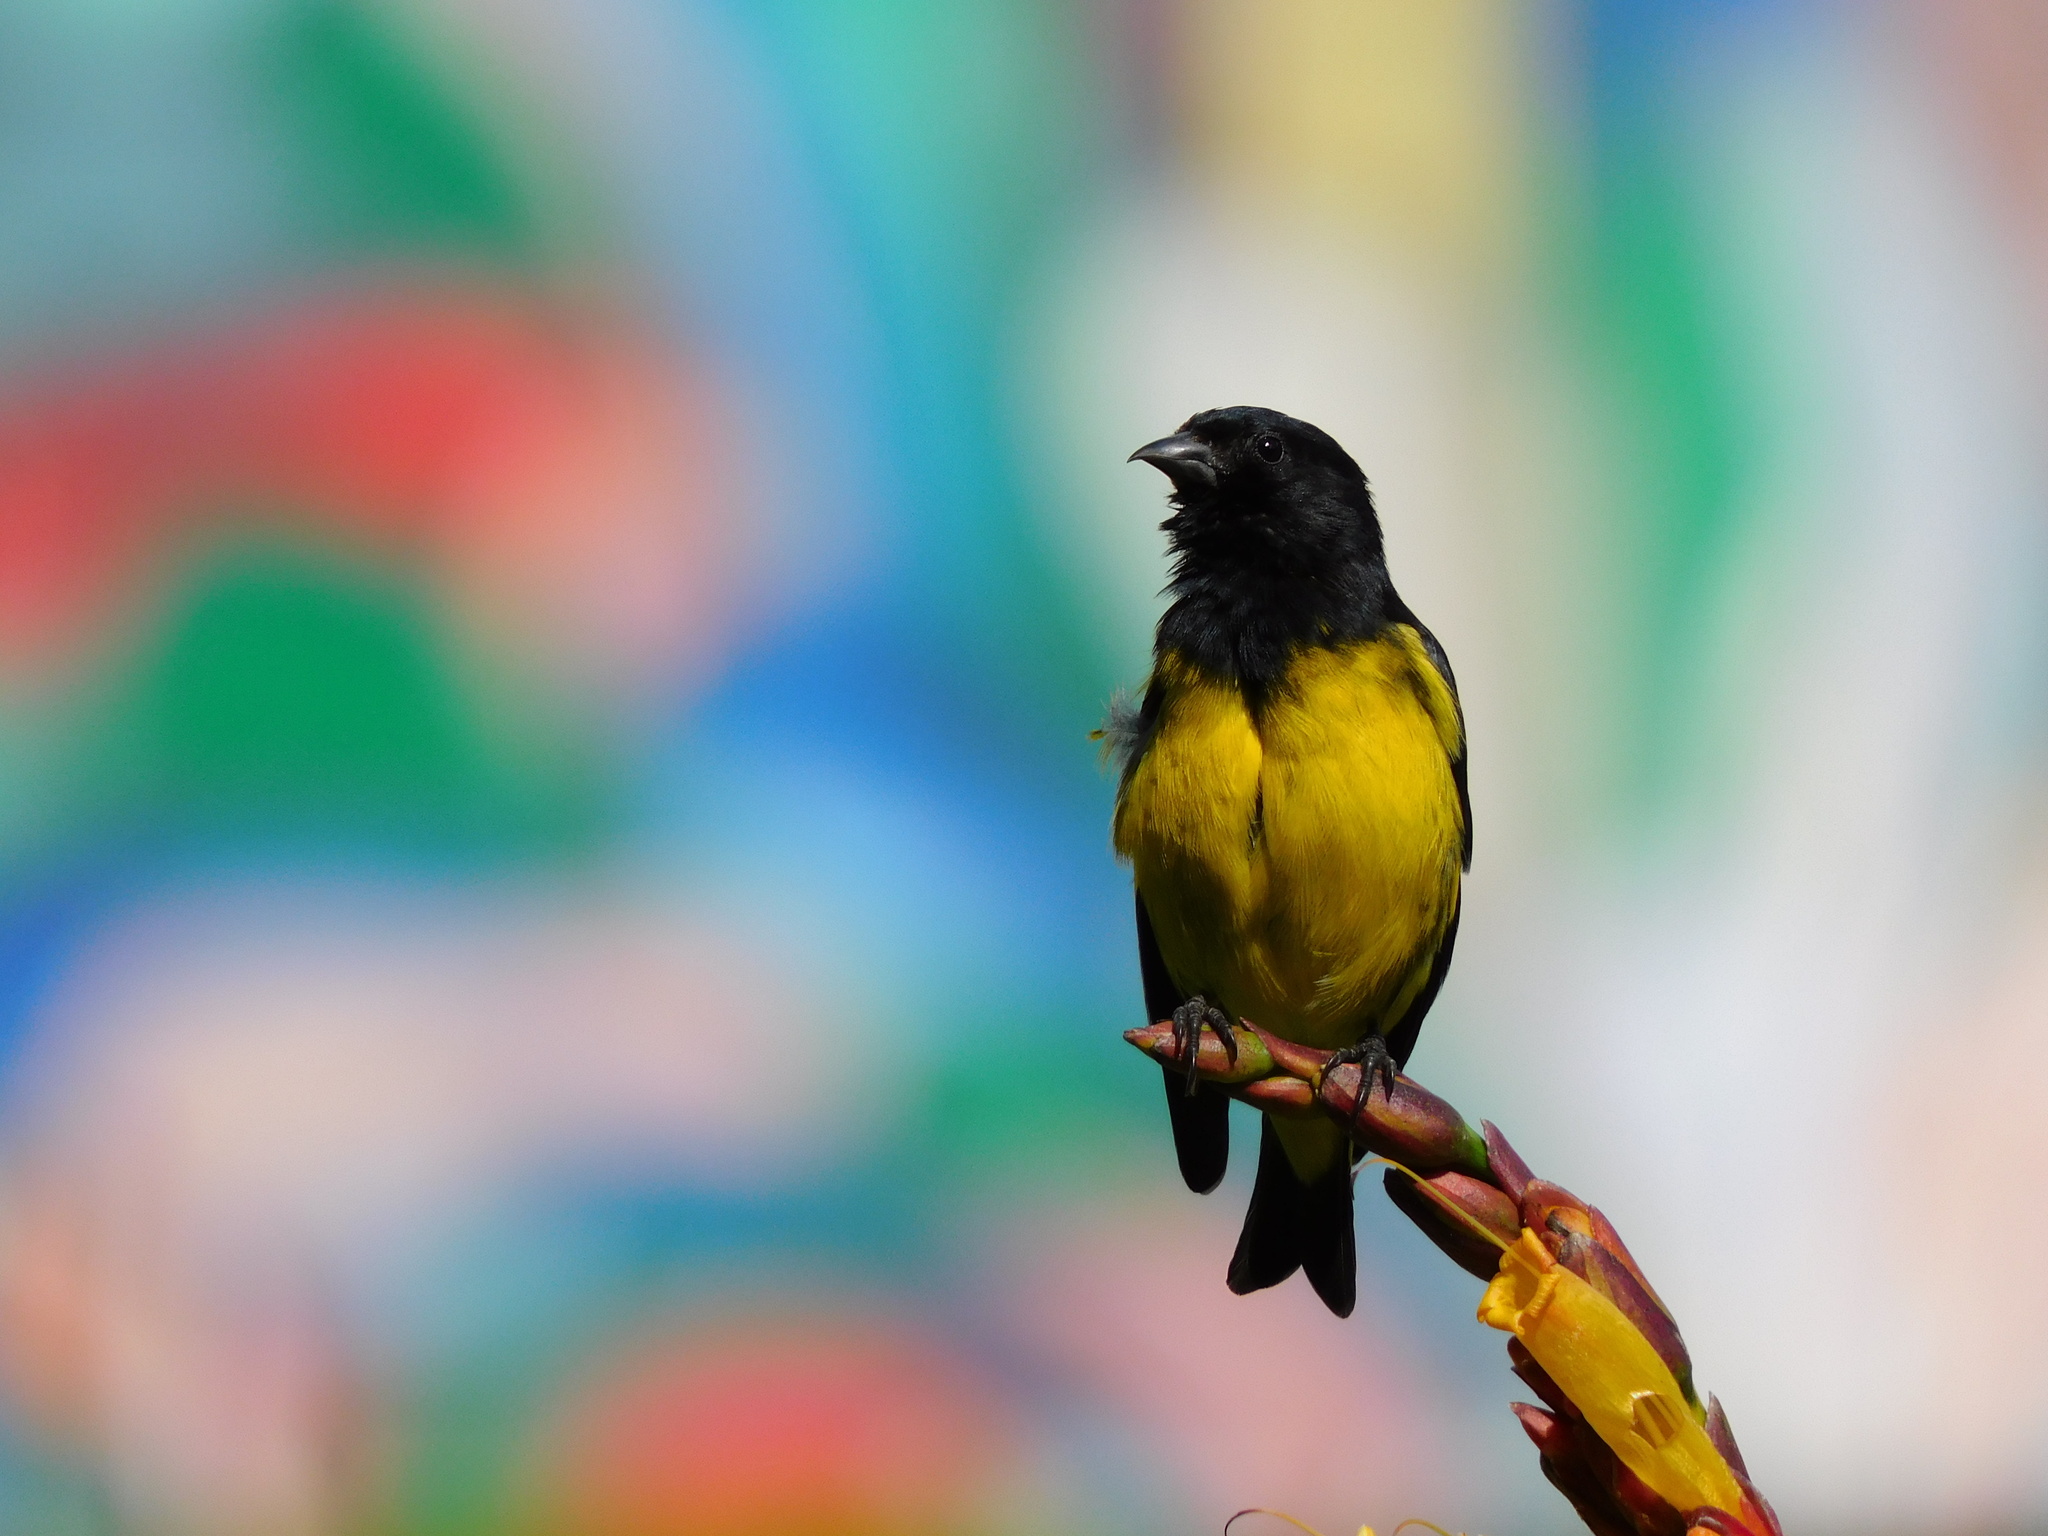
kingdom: Animalia
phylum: Chordata
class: Aves
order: Passeriformes
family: Fringillidae
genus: Spinus
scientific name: Spinus xanthogastrus
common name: Yellow-bellied siskin
